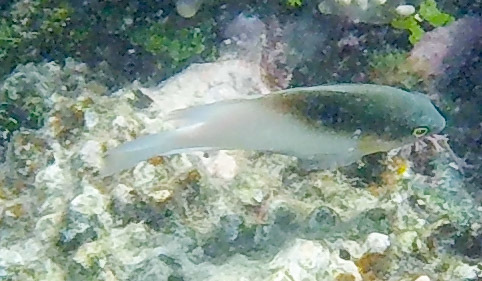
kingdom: Animalia
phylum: Chordata
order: Perciformes
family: Pomacentridae
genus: Dischistodus
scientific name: Dischistodus melanotus
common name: Black-vent damsel
